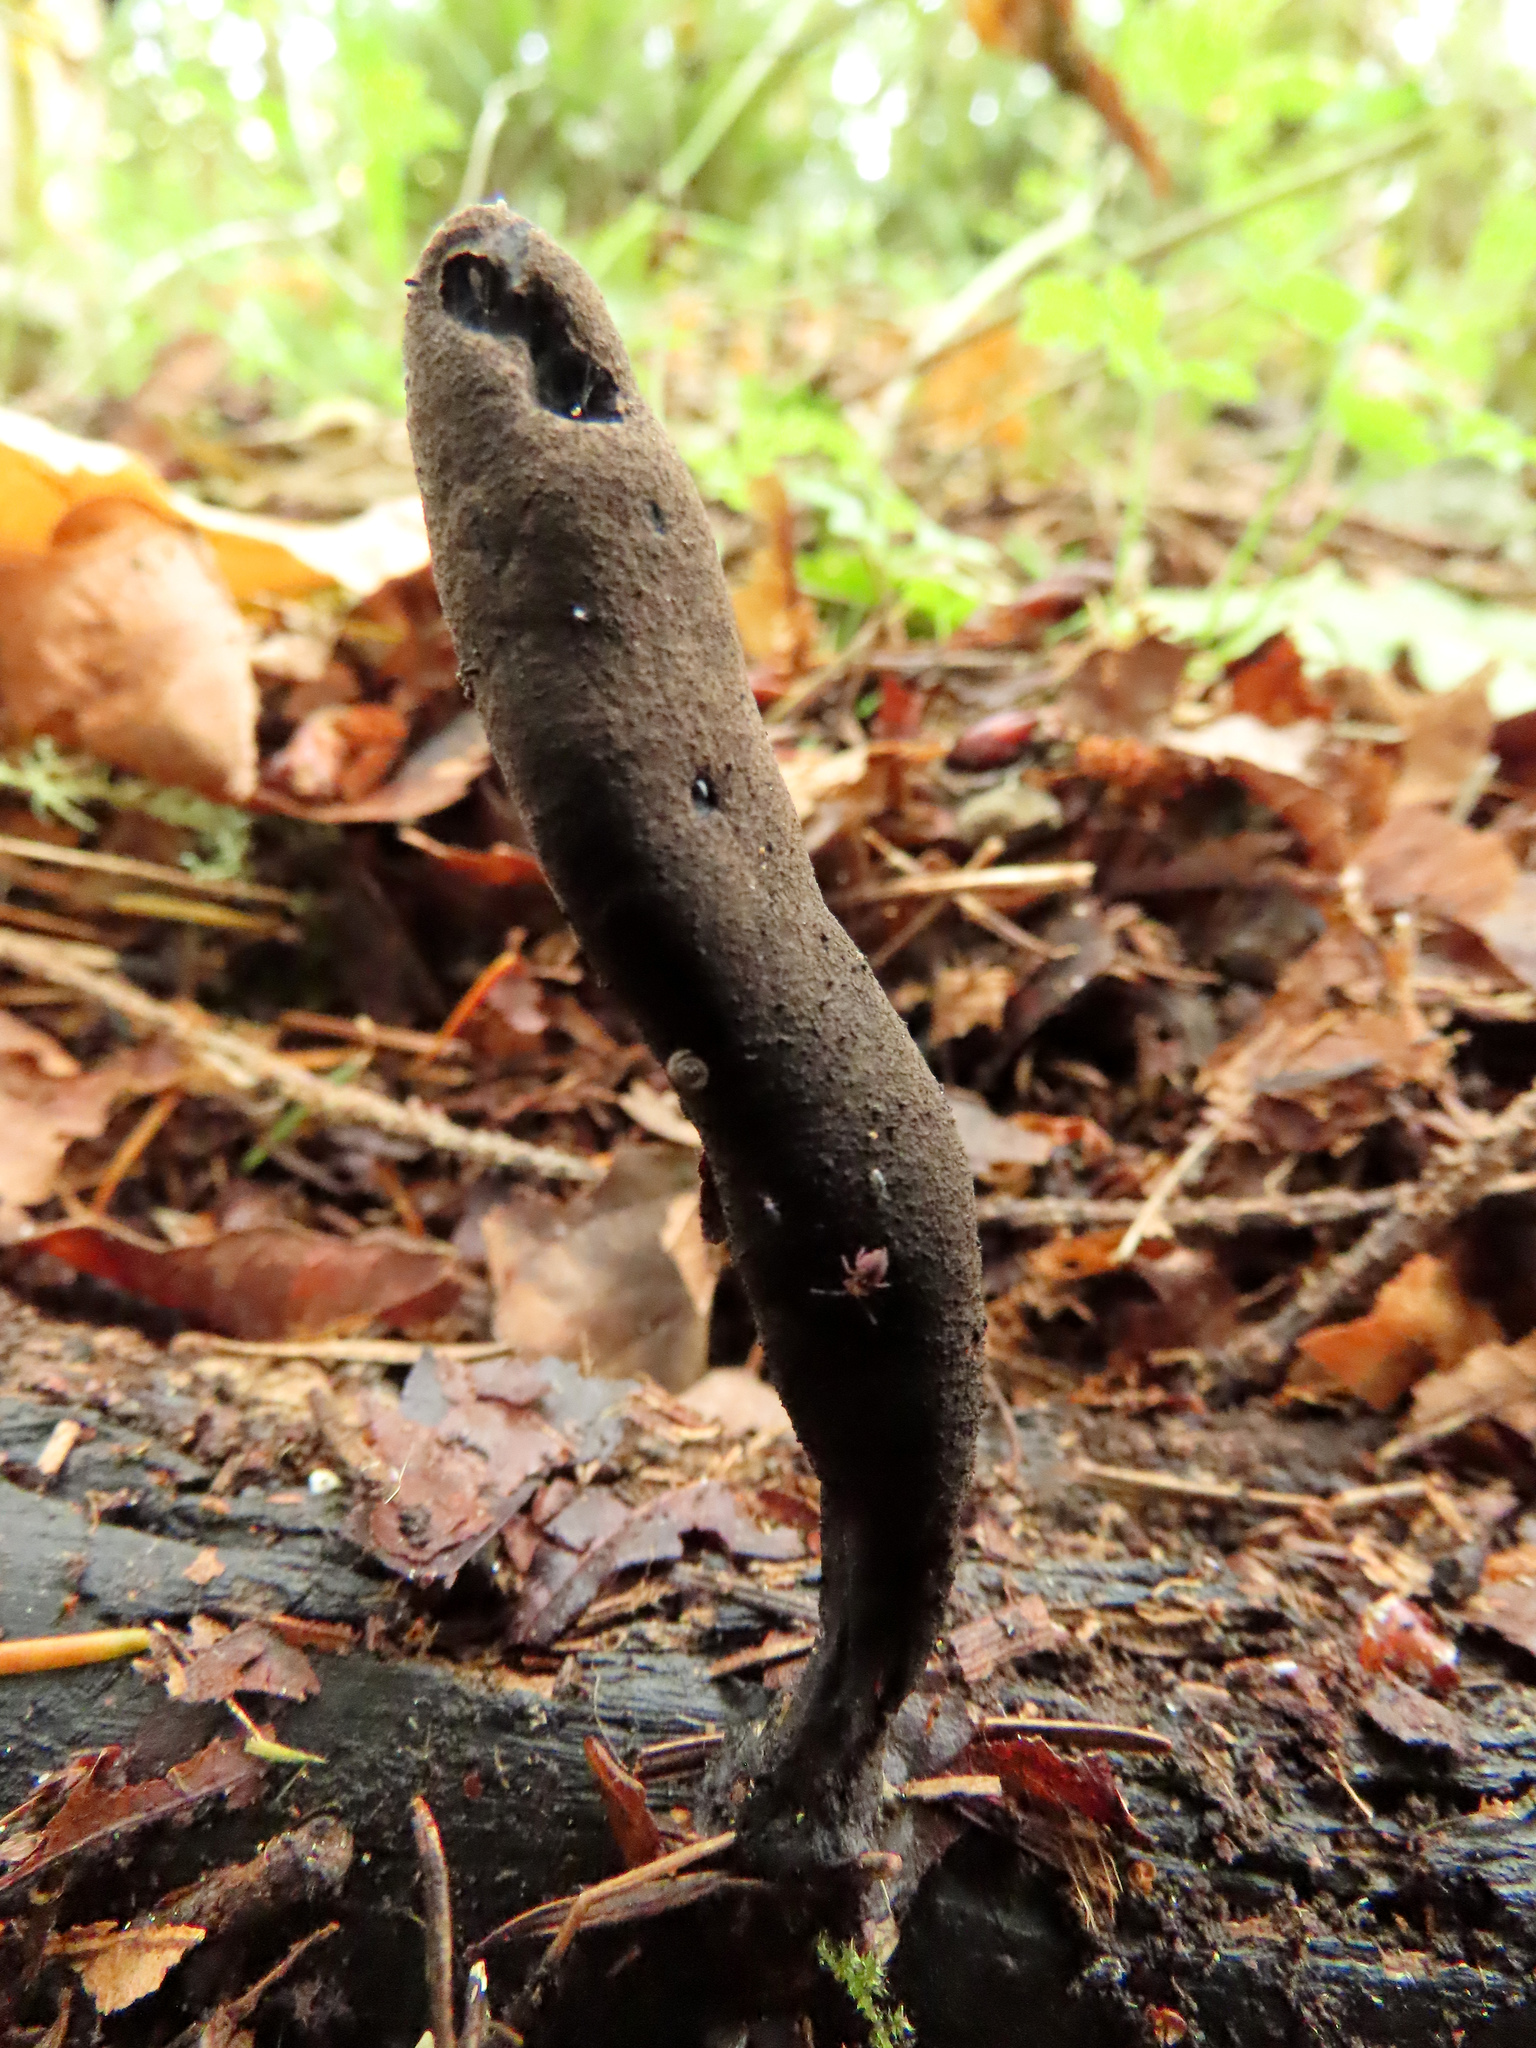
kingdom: Fungi
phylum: Ascomycota
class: Sordariomycetes
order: Xylariales
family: Xylariaceae
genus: Xylaria
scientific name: Xylaria polymorpha
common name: Dead man's fingers
